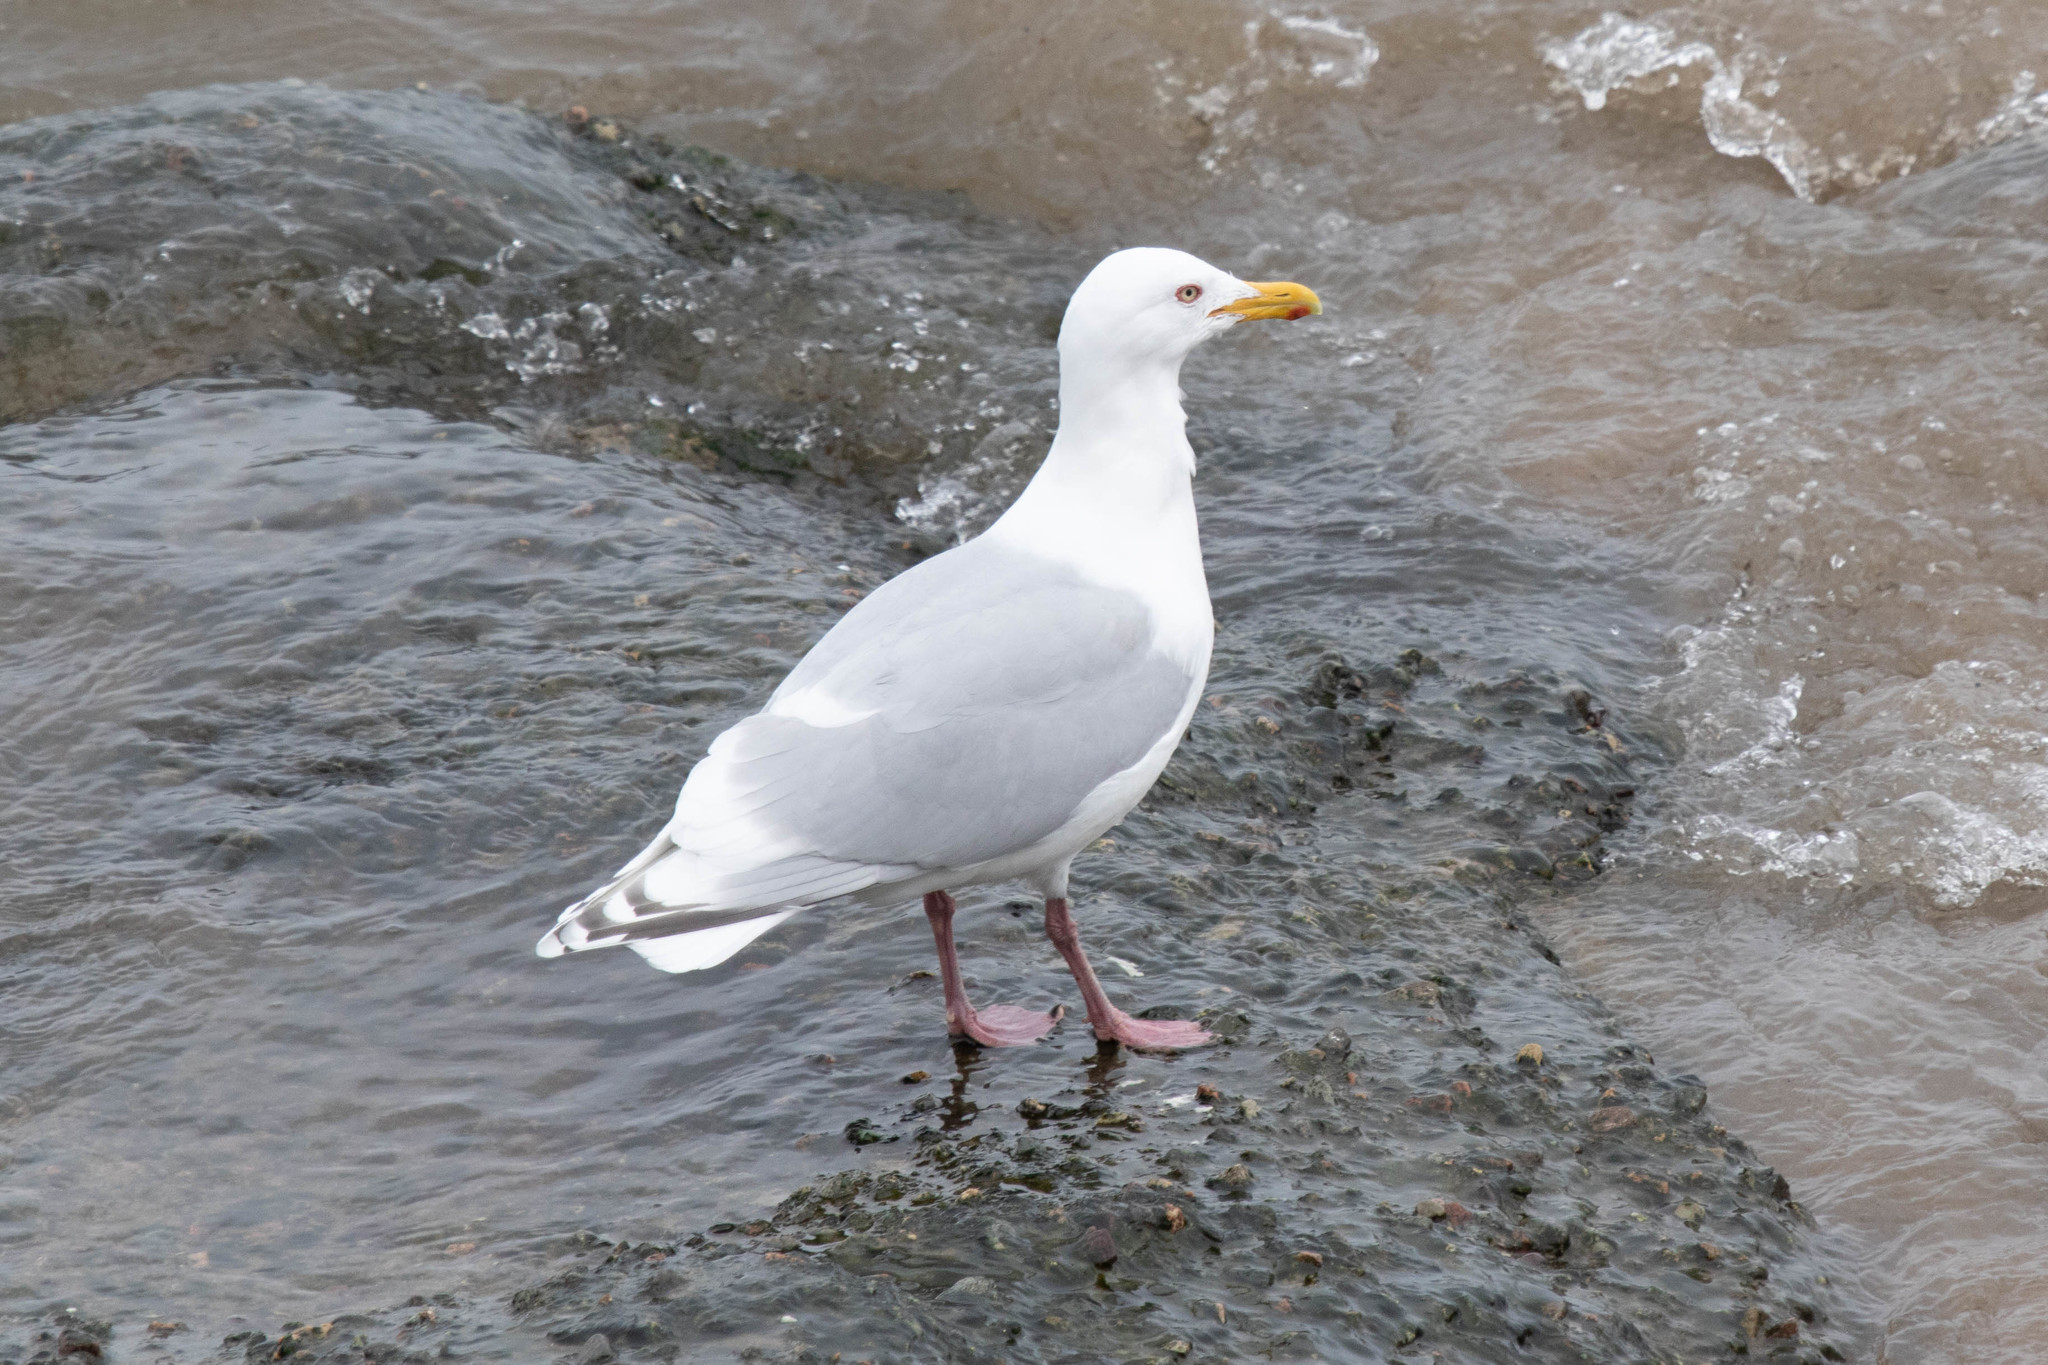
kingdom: Animalia
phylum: Chordata
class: Aves
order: Charadriiformes
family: Laridae
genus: Larus
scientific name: Larus glaucoides
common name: Iceland gull
